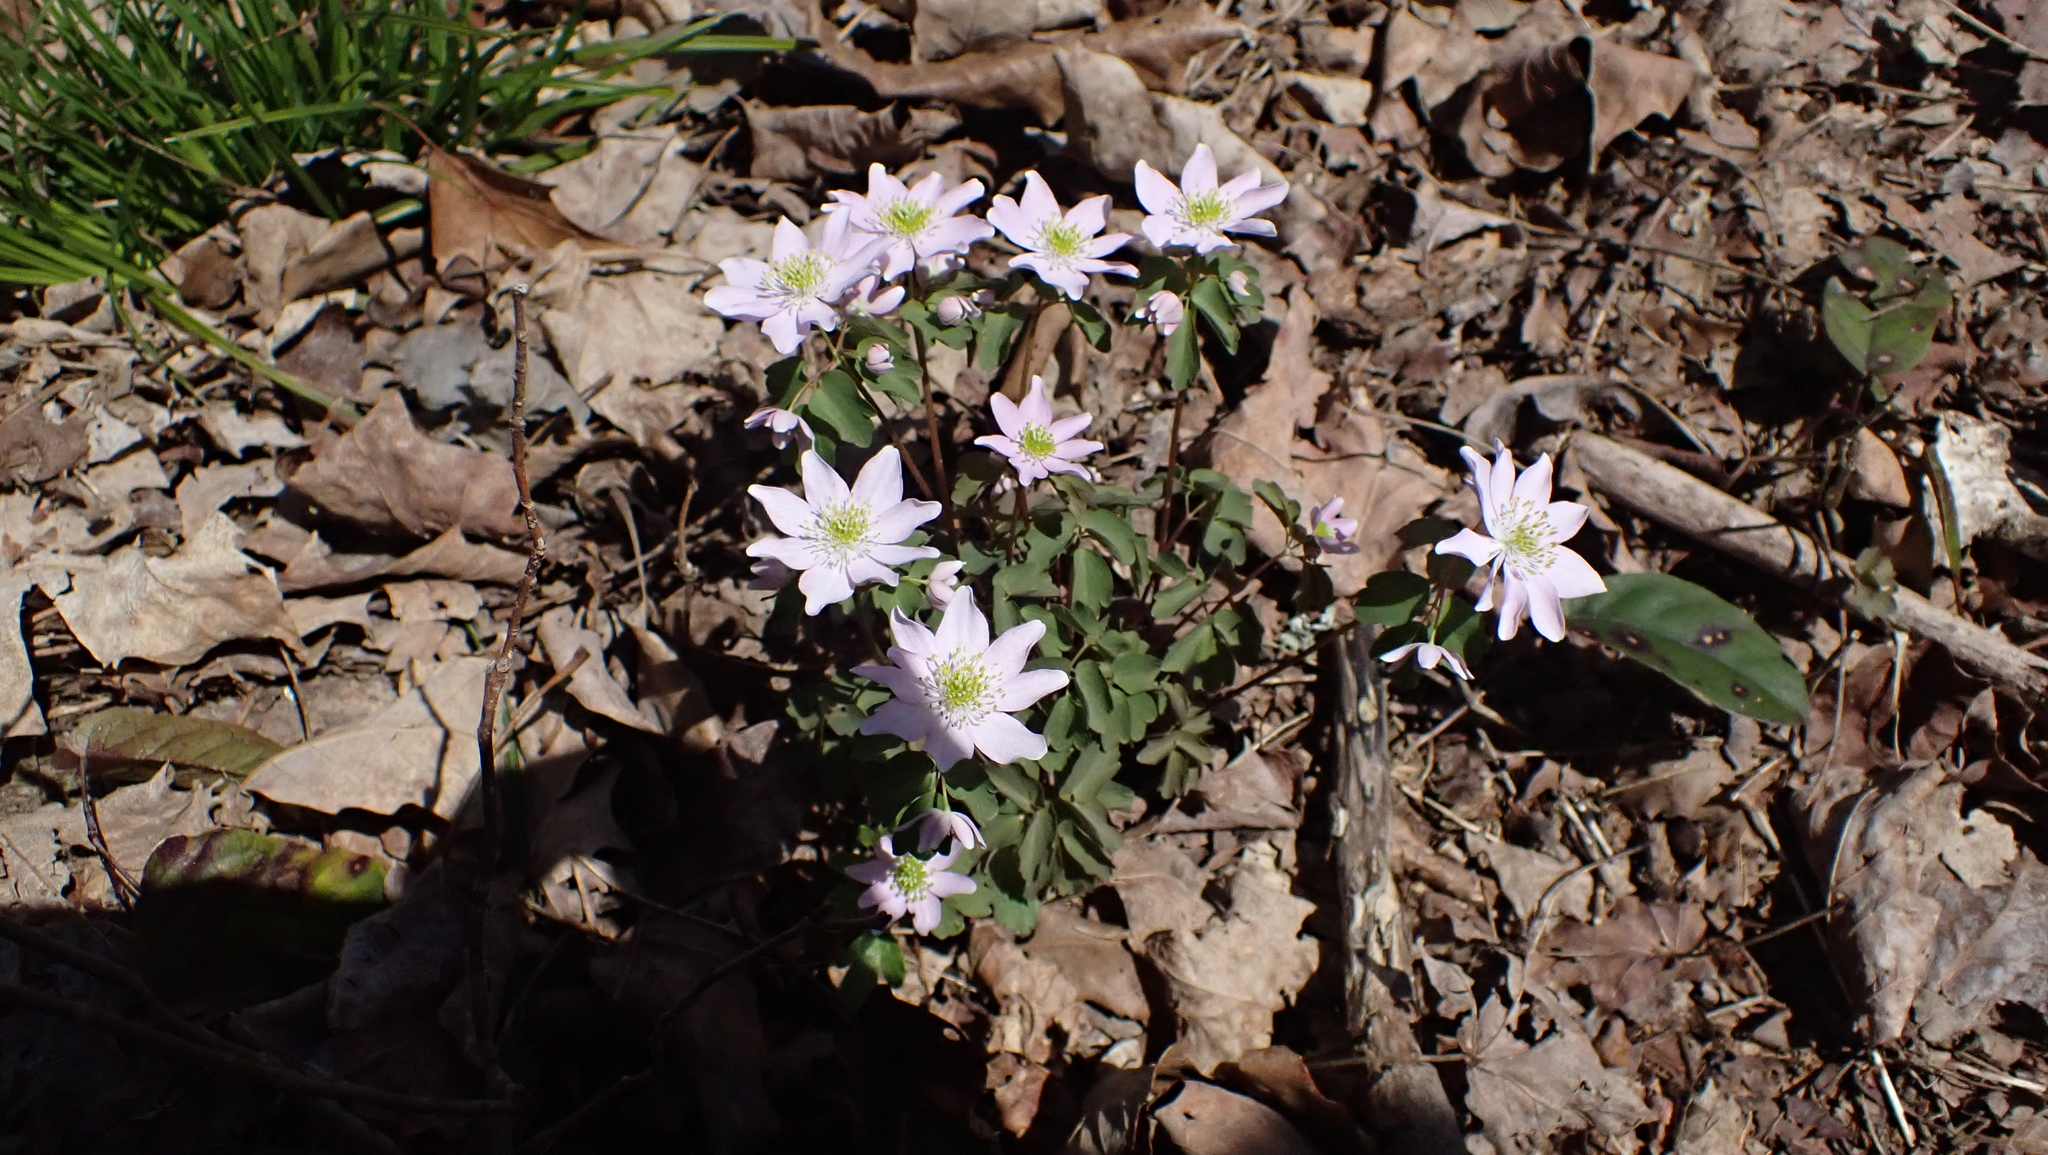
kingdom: Plantae
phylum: Tracheophyta
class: Magnoliopsida
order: Ranunculales
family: Ranunculaceae
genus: Thalictrum
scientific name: Thalictrum thalictroides
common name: Rue-anemone
